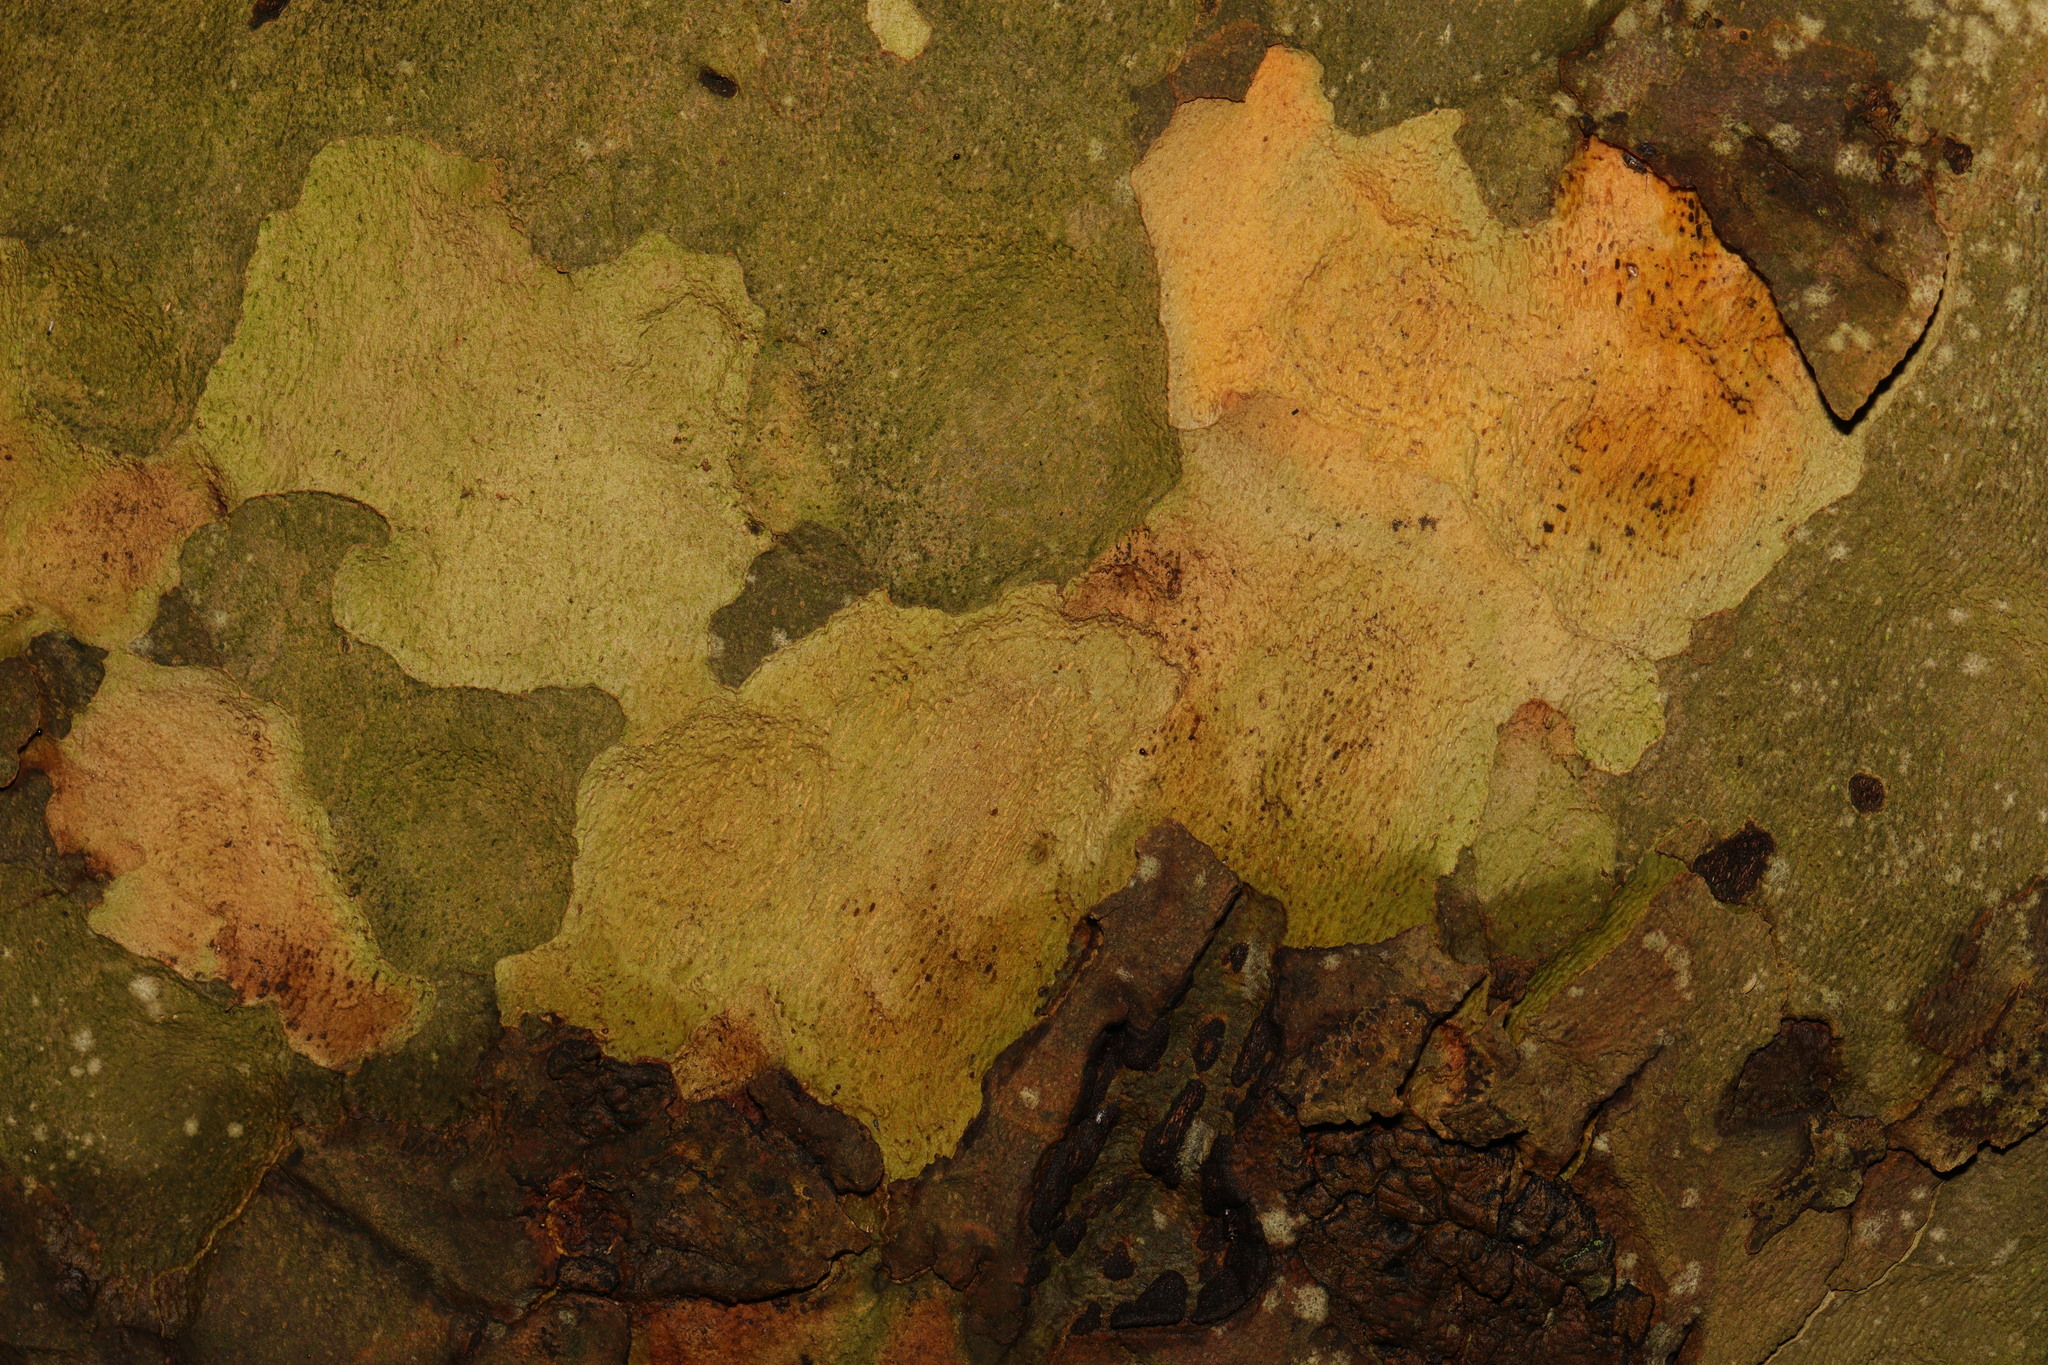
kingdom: Plantae
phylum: Tracheophyta
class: Magnoliopsida
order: Proteales
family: Platanaceae
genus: Platanus
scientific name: Platanus hispanica
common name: London plane
